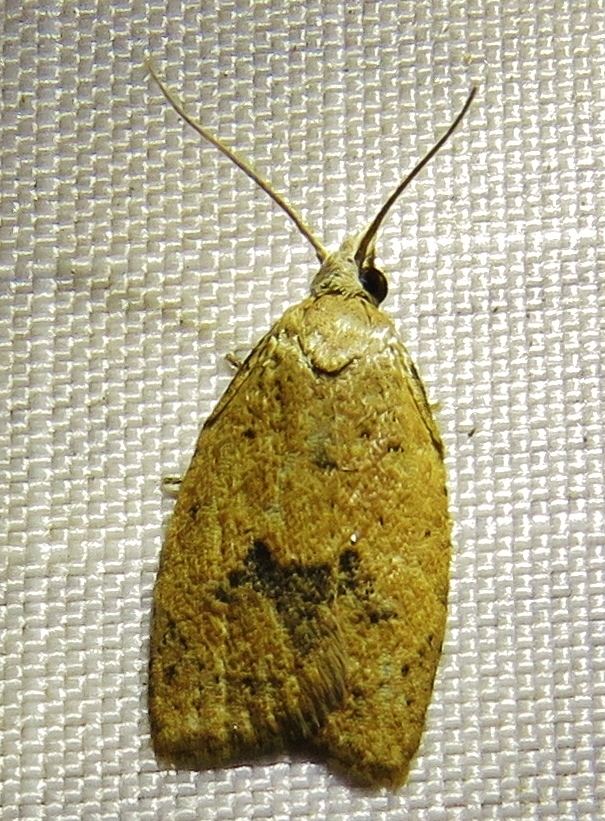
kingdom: Animalia
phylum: Arthropoda
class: Insecta
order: Lepidoptera
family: Tortricidae
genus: Sparganothoides
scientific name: Sparganothoides lentiginosana
